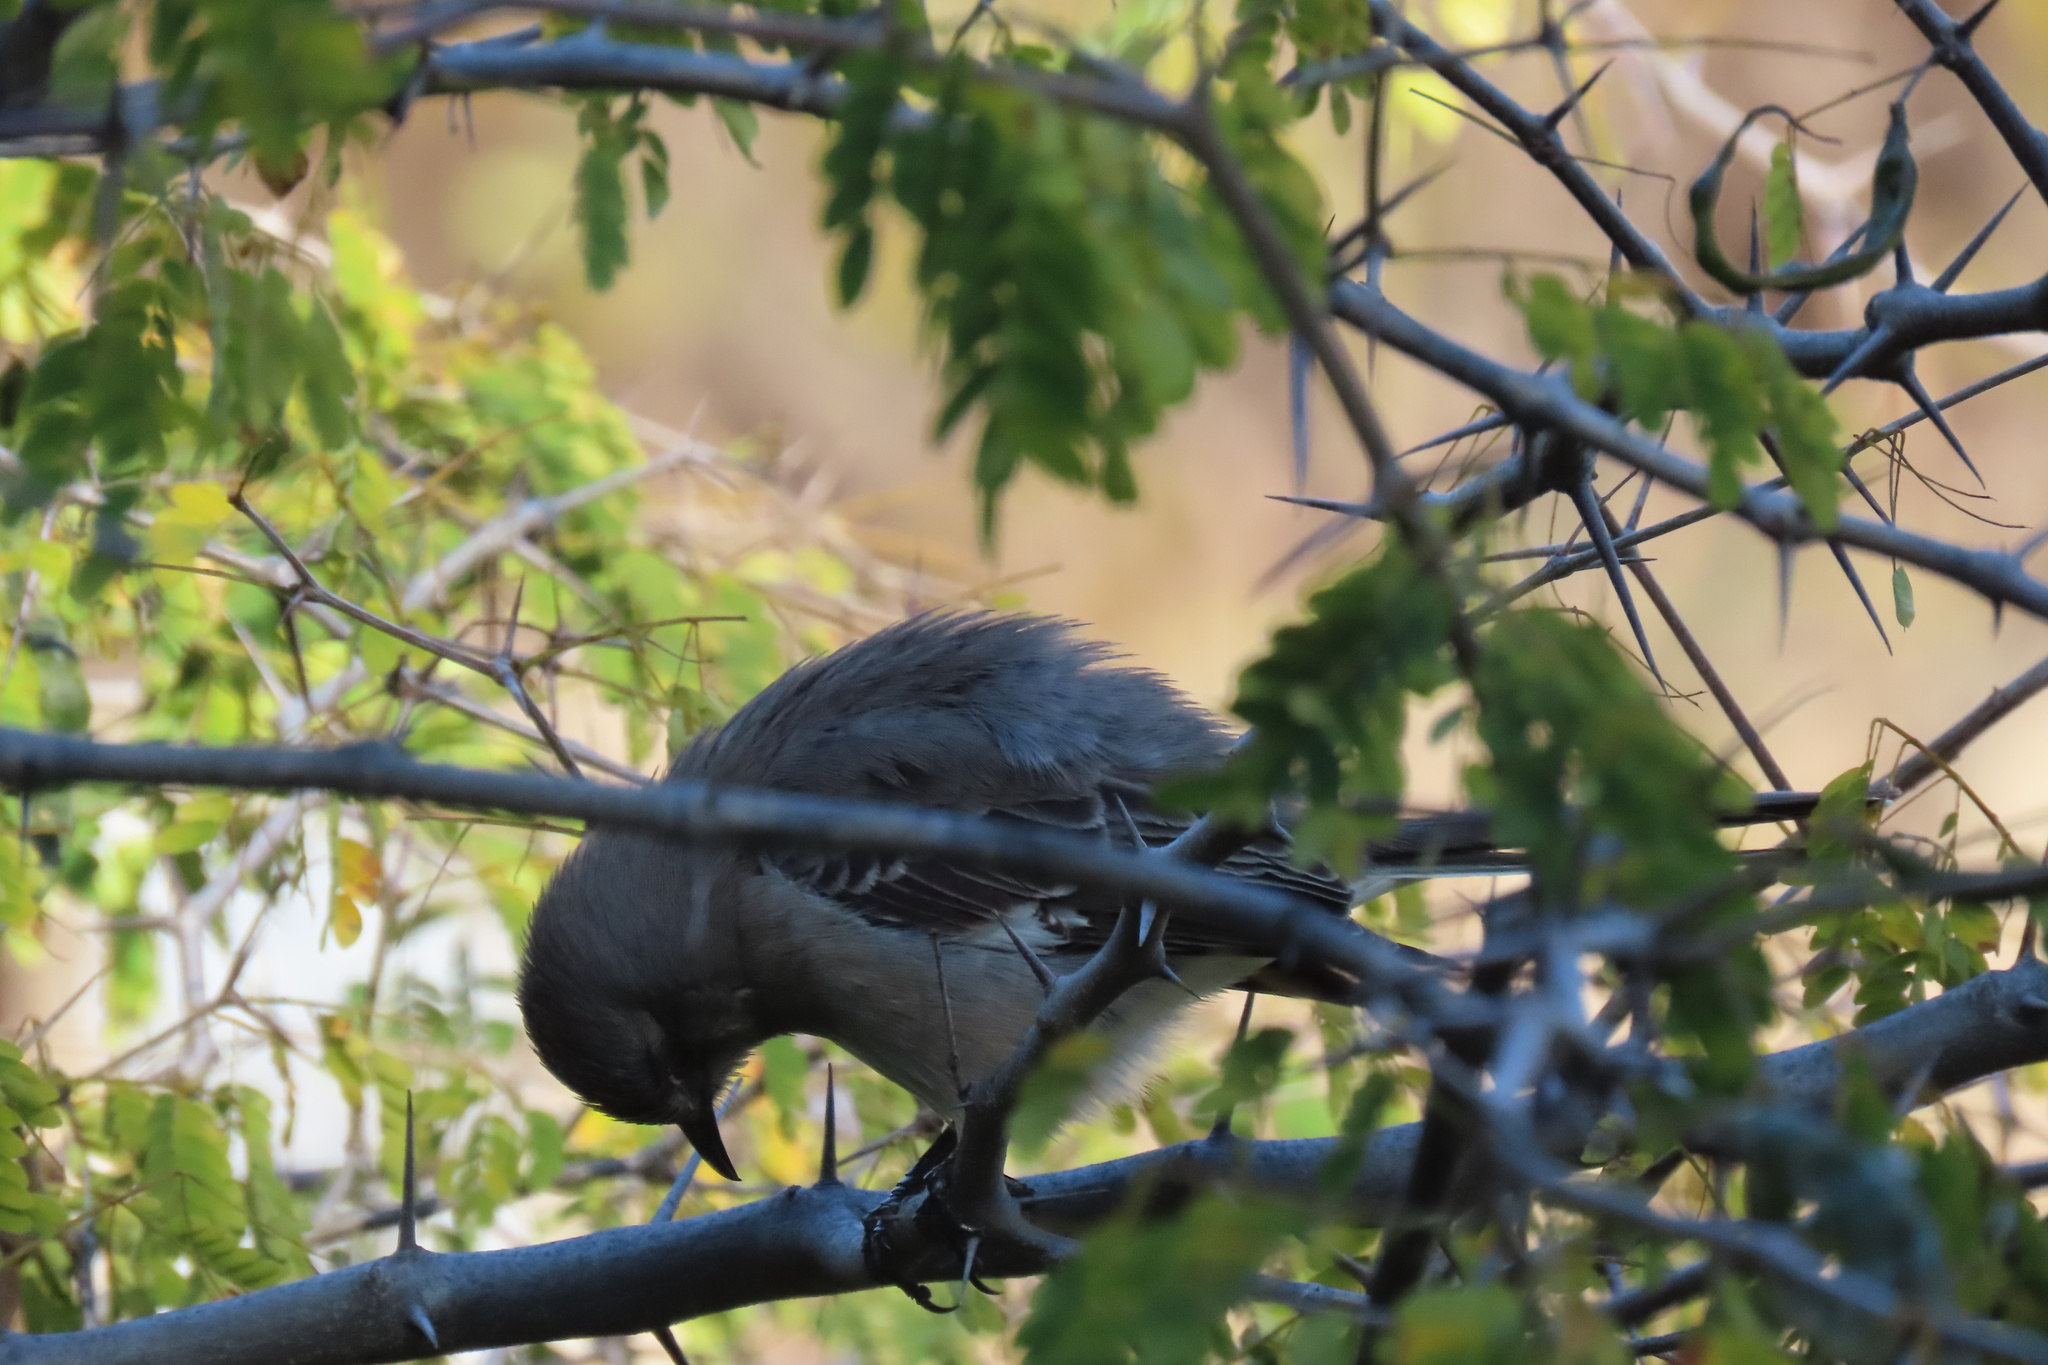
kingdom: Animalia
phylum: Chordata
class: Aves
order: Passeriformes
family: Mimidae
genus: Mimus
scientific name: Mimus polyglottos
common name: Northern mockingbird
